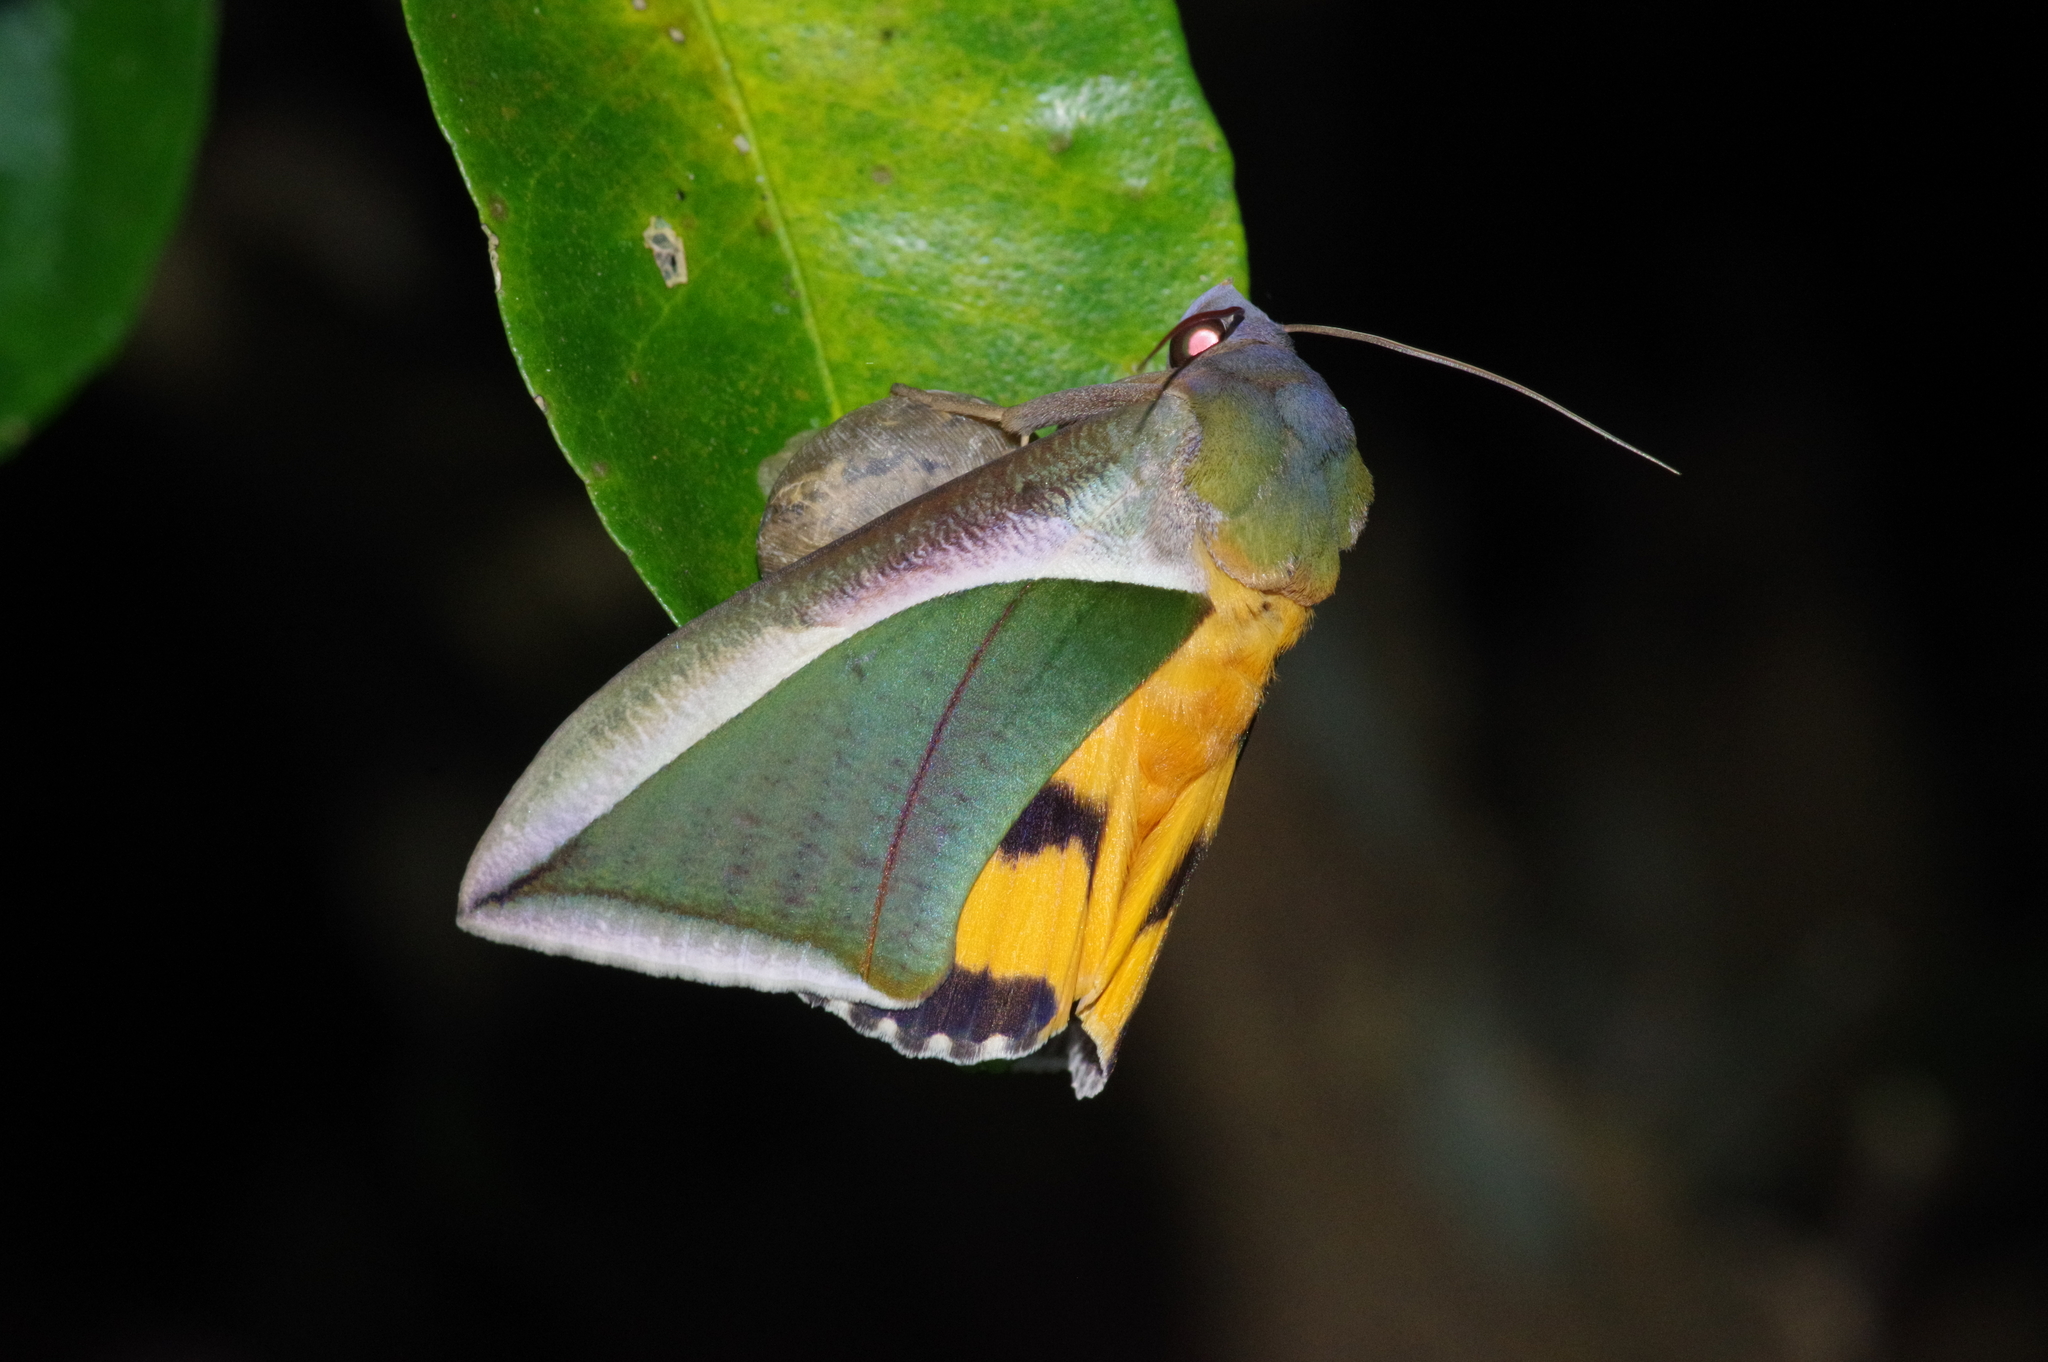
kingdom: Animalia
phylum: Arthropoda
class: Insecta
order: Lepidoptera
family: Erebidae
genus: Eudocima
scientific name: Eudocima salaminia
